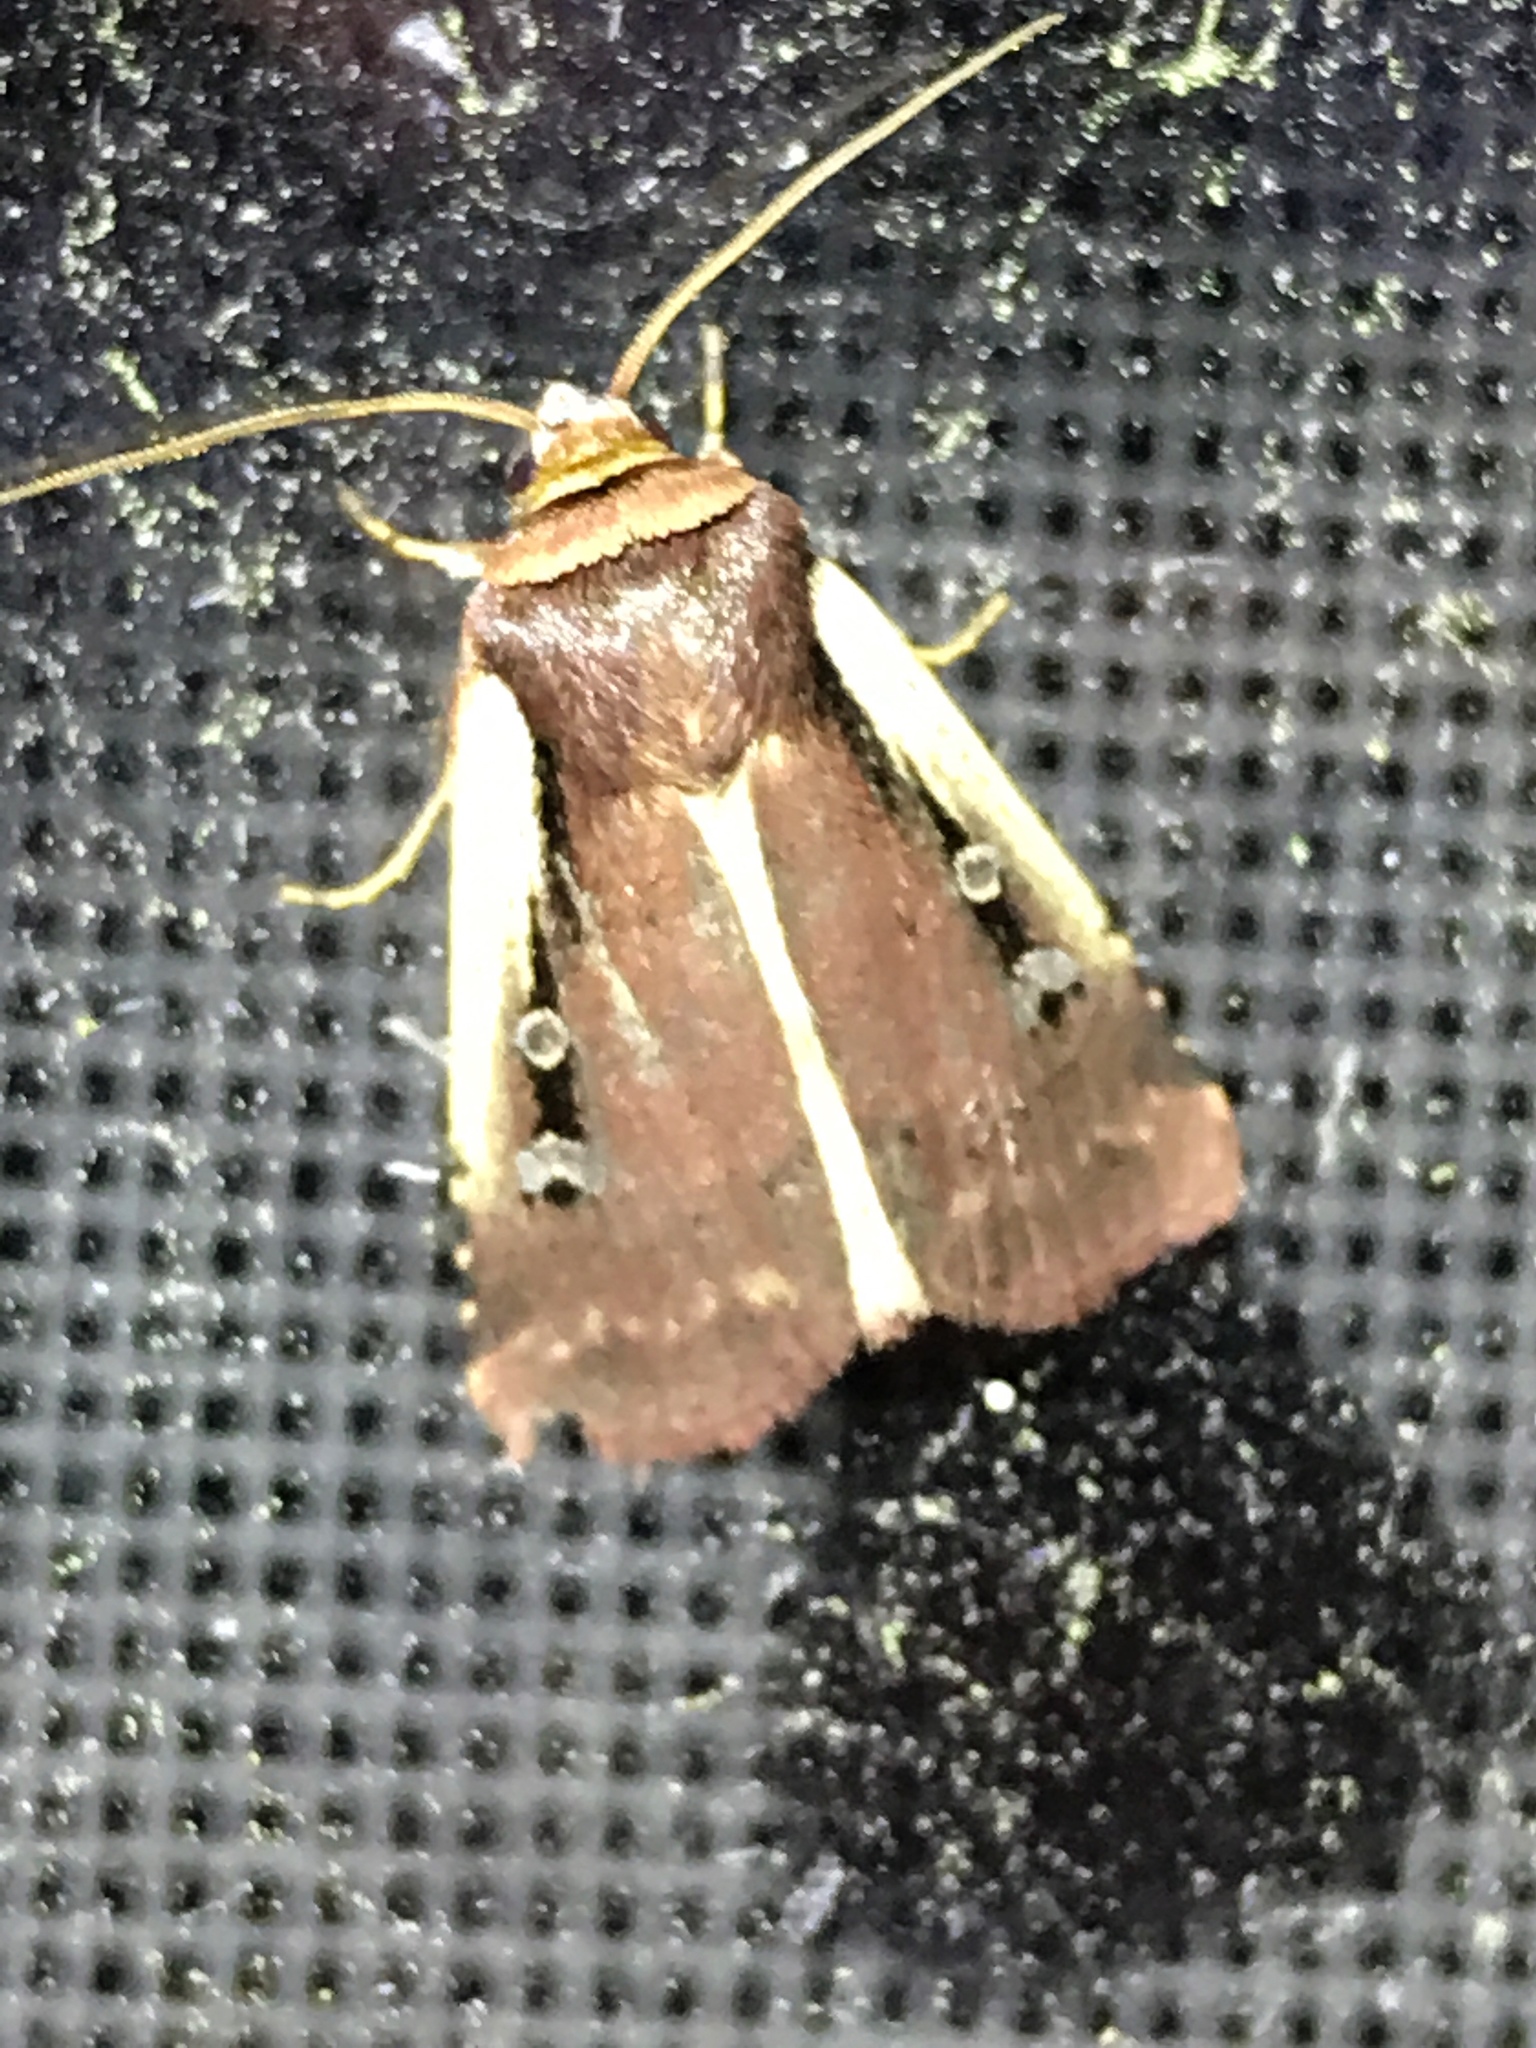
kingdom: Animalia
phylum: Arthropoda
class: Insecta
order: Lepidoptera
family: Noctuidae
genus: Ochropleura
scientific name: Ochropleura implecta
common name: Flame-shouldered dart
